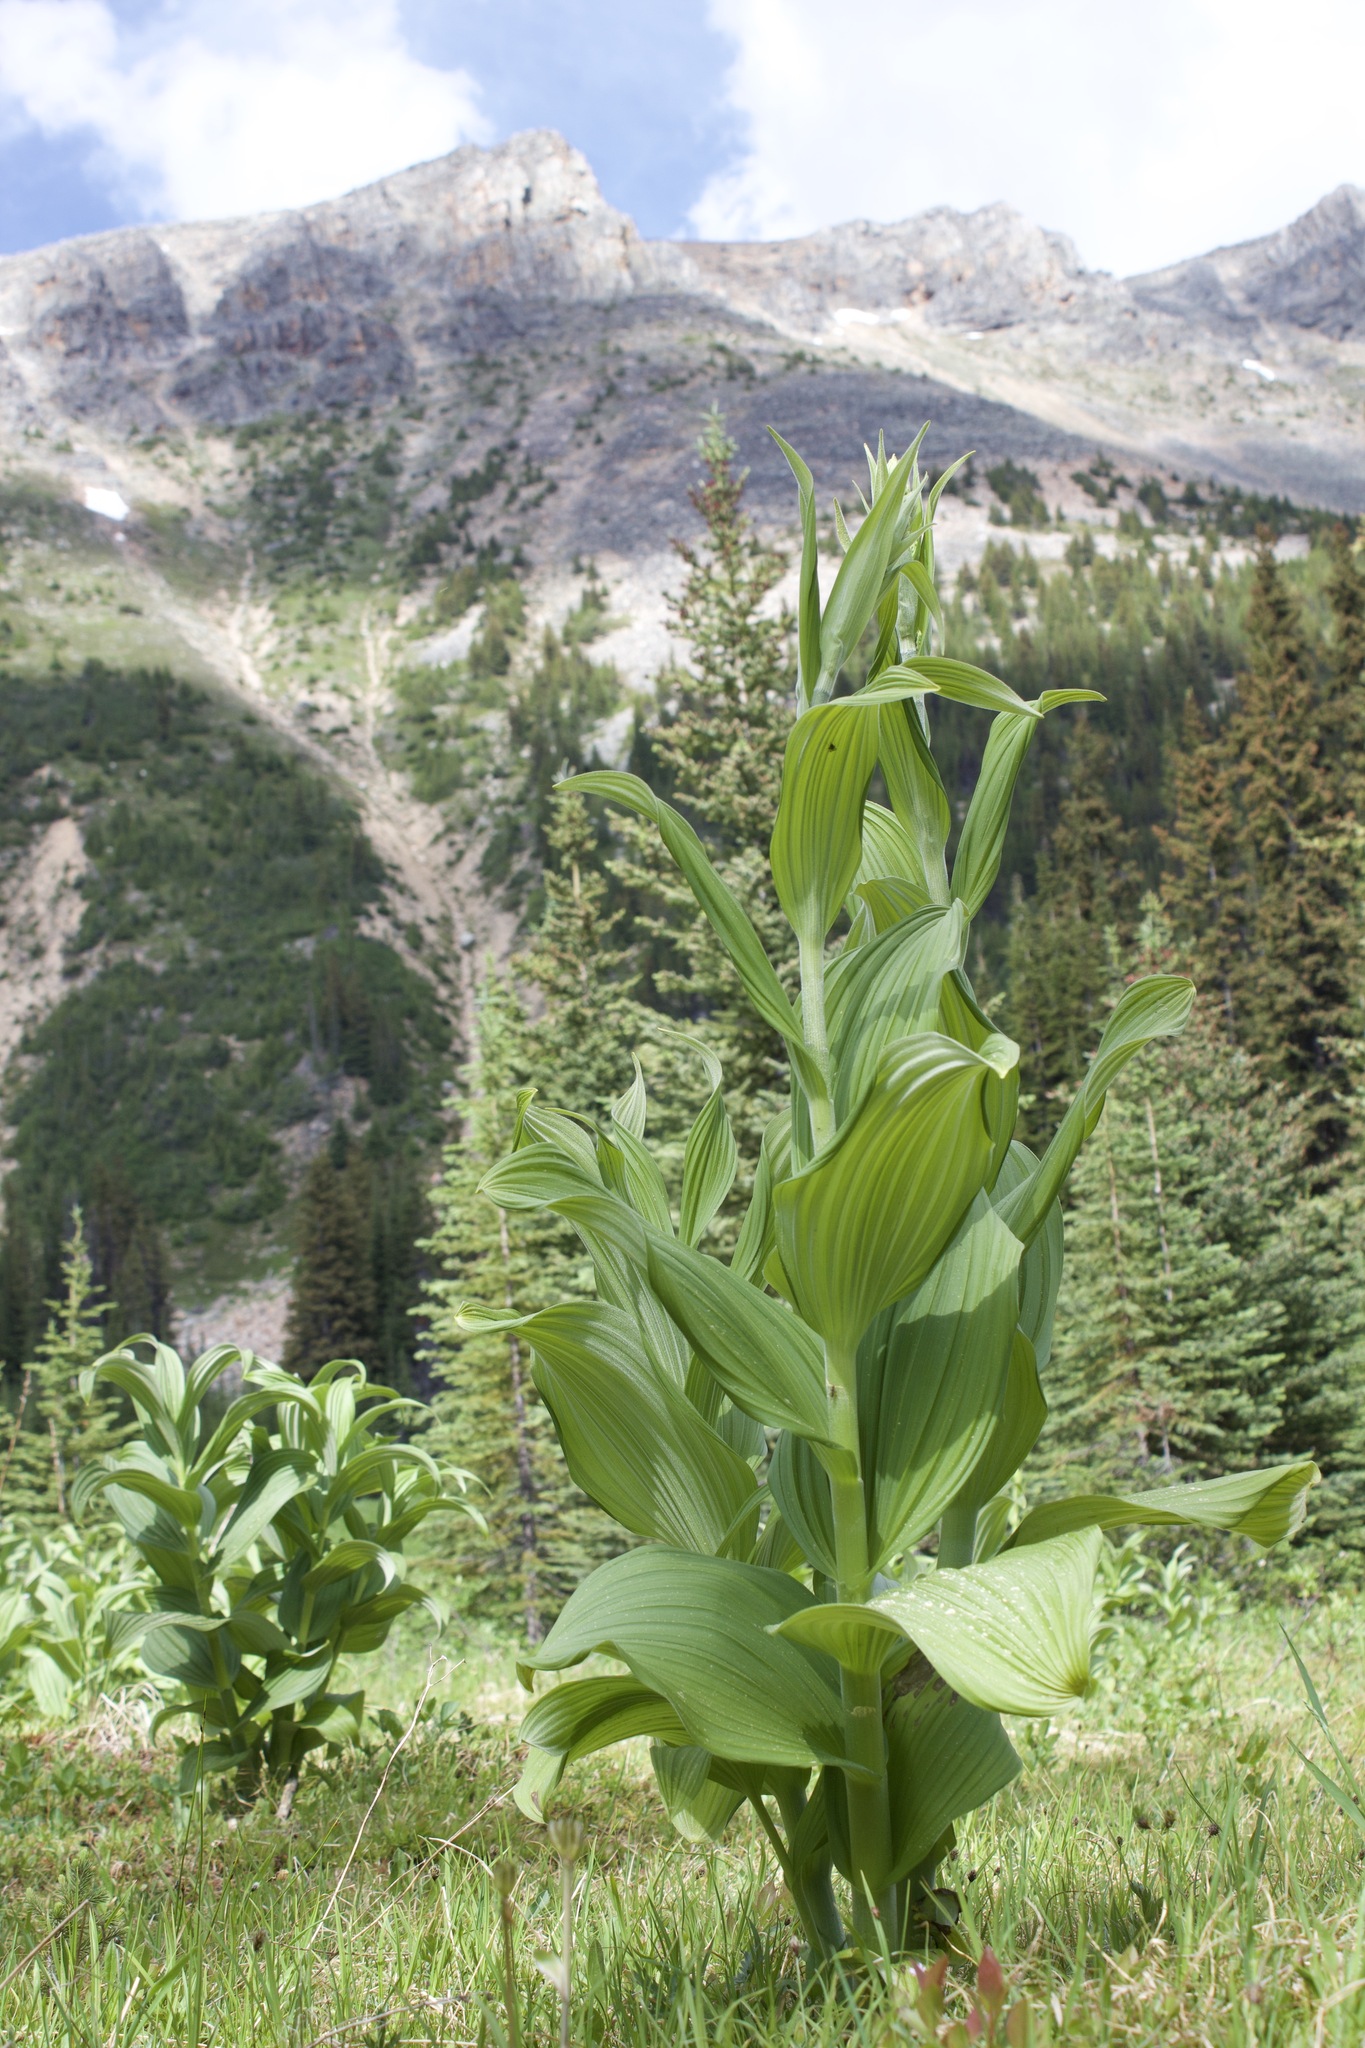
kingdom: Plantae
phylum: Tracheophyta
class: Liliopsida
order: Liliales
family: Melanthiaceae
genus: Veratrum
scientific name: Veratrum viride
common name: American false hellebore
